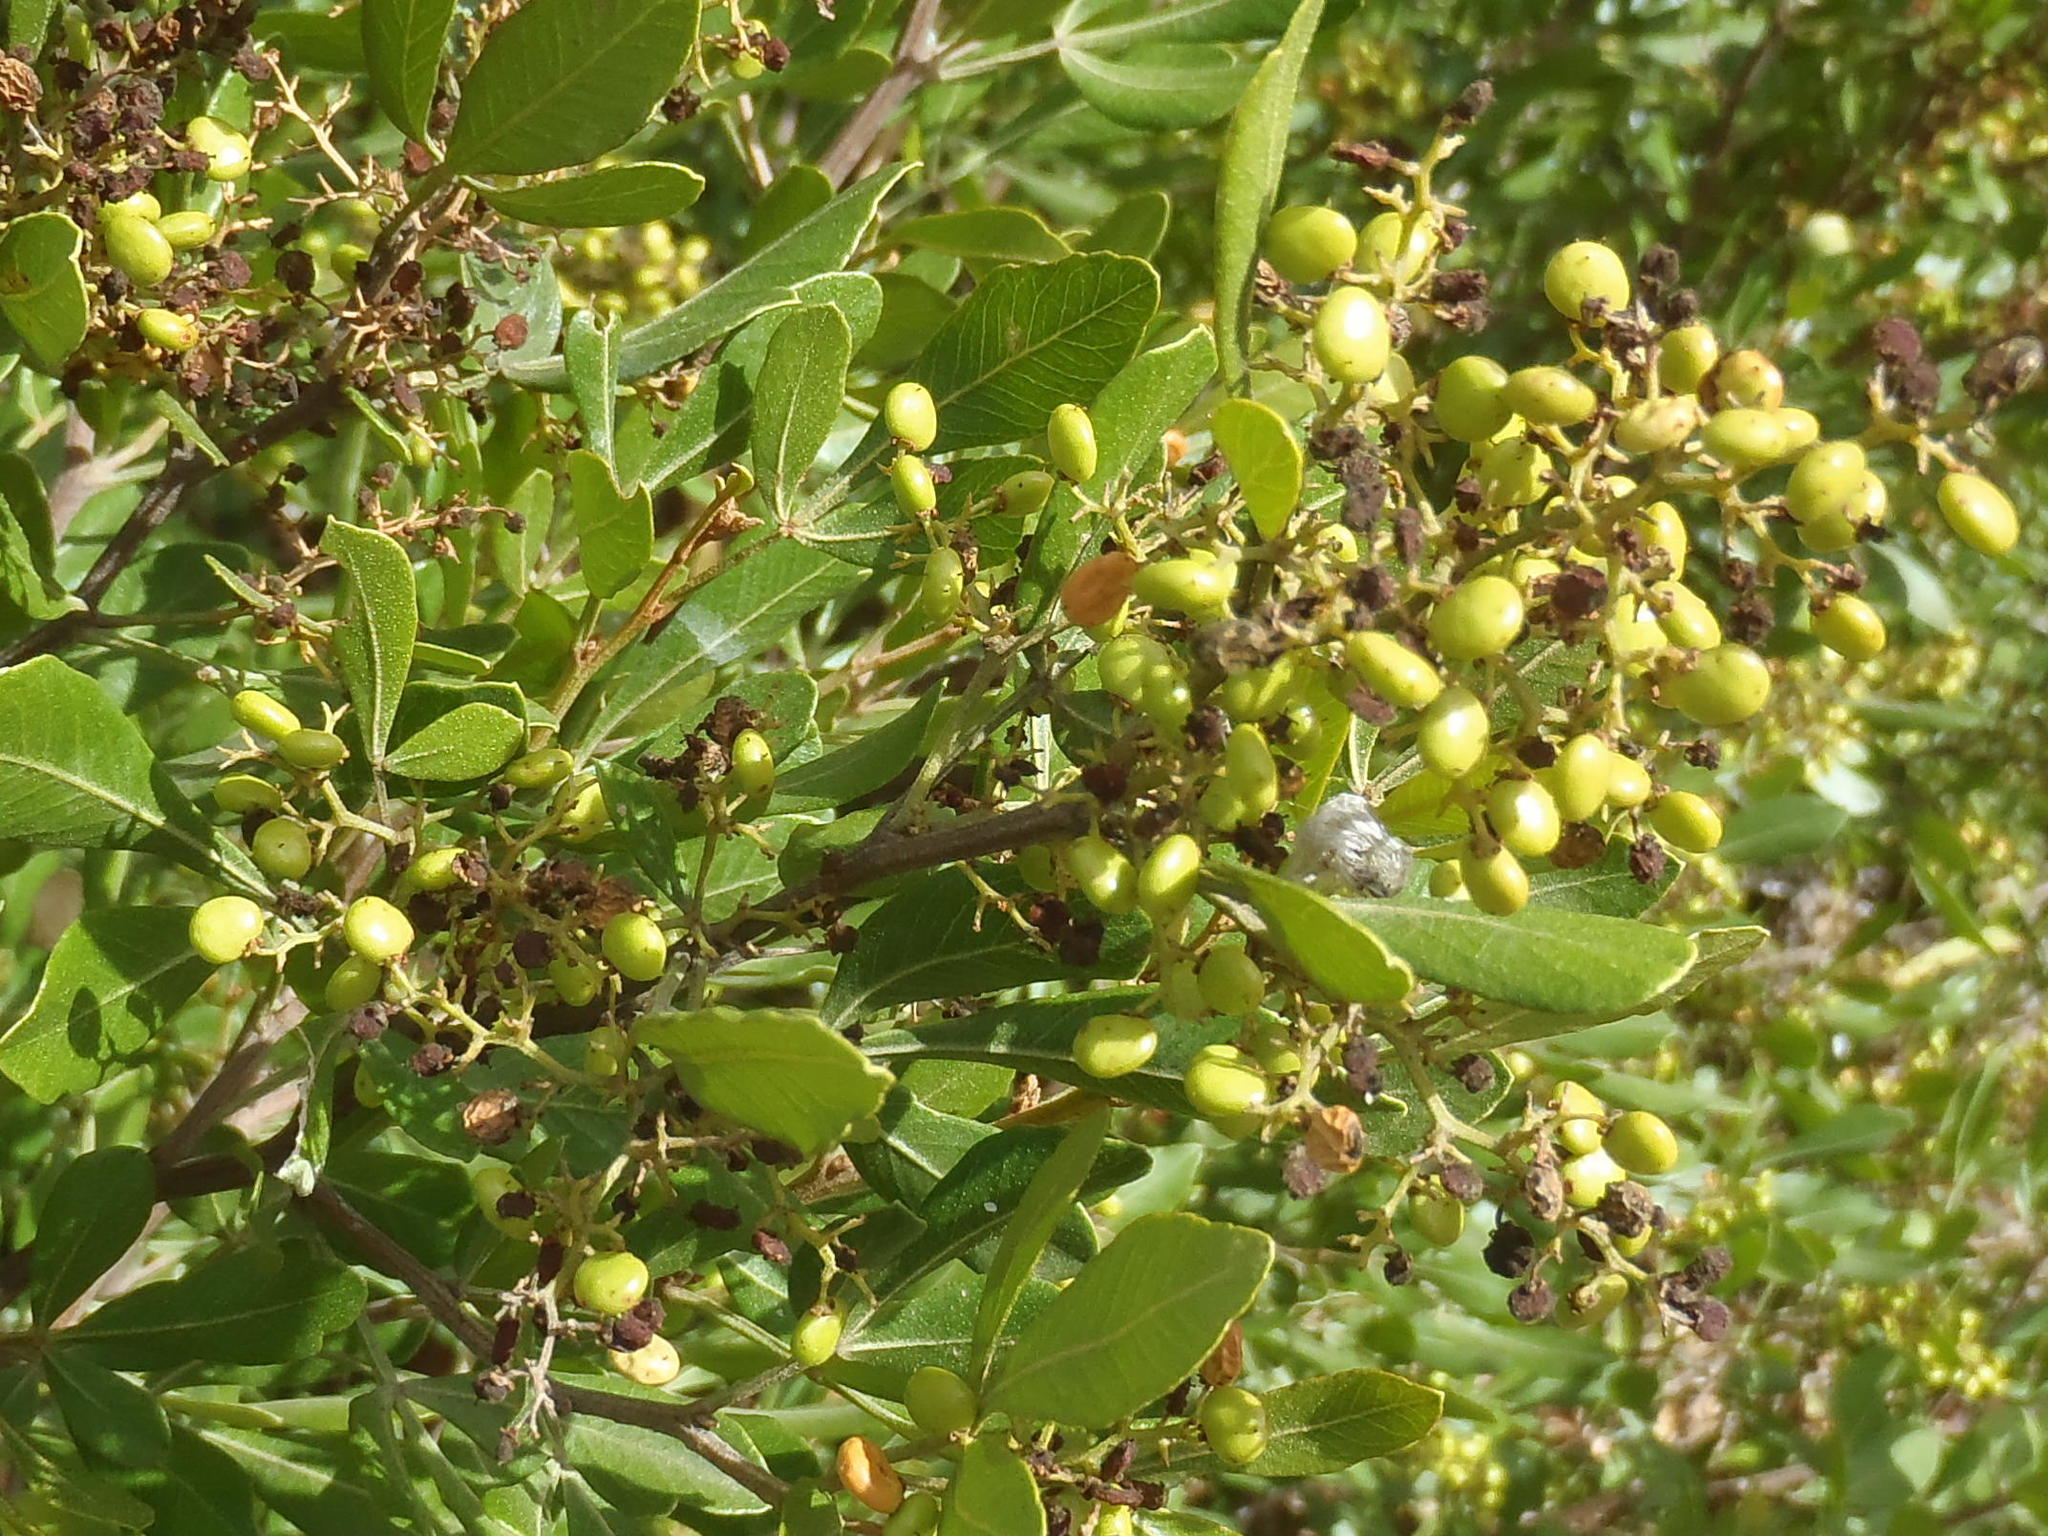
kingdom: Plantae
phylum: Tracheophyta
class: Magnoliopsida
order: Sapindales
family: Anacardiaceae
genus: Searsia
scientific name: Searsia pallens
